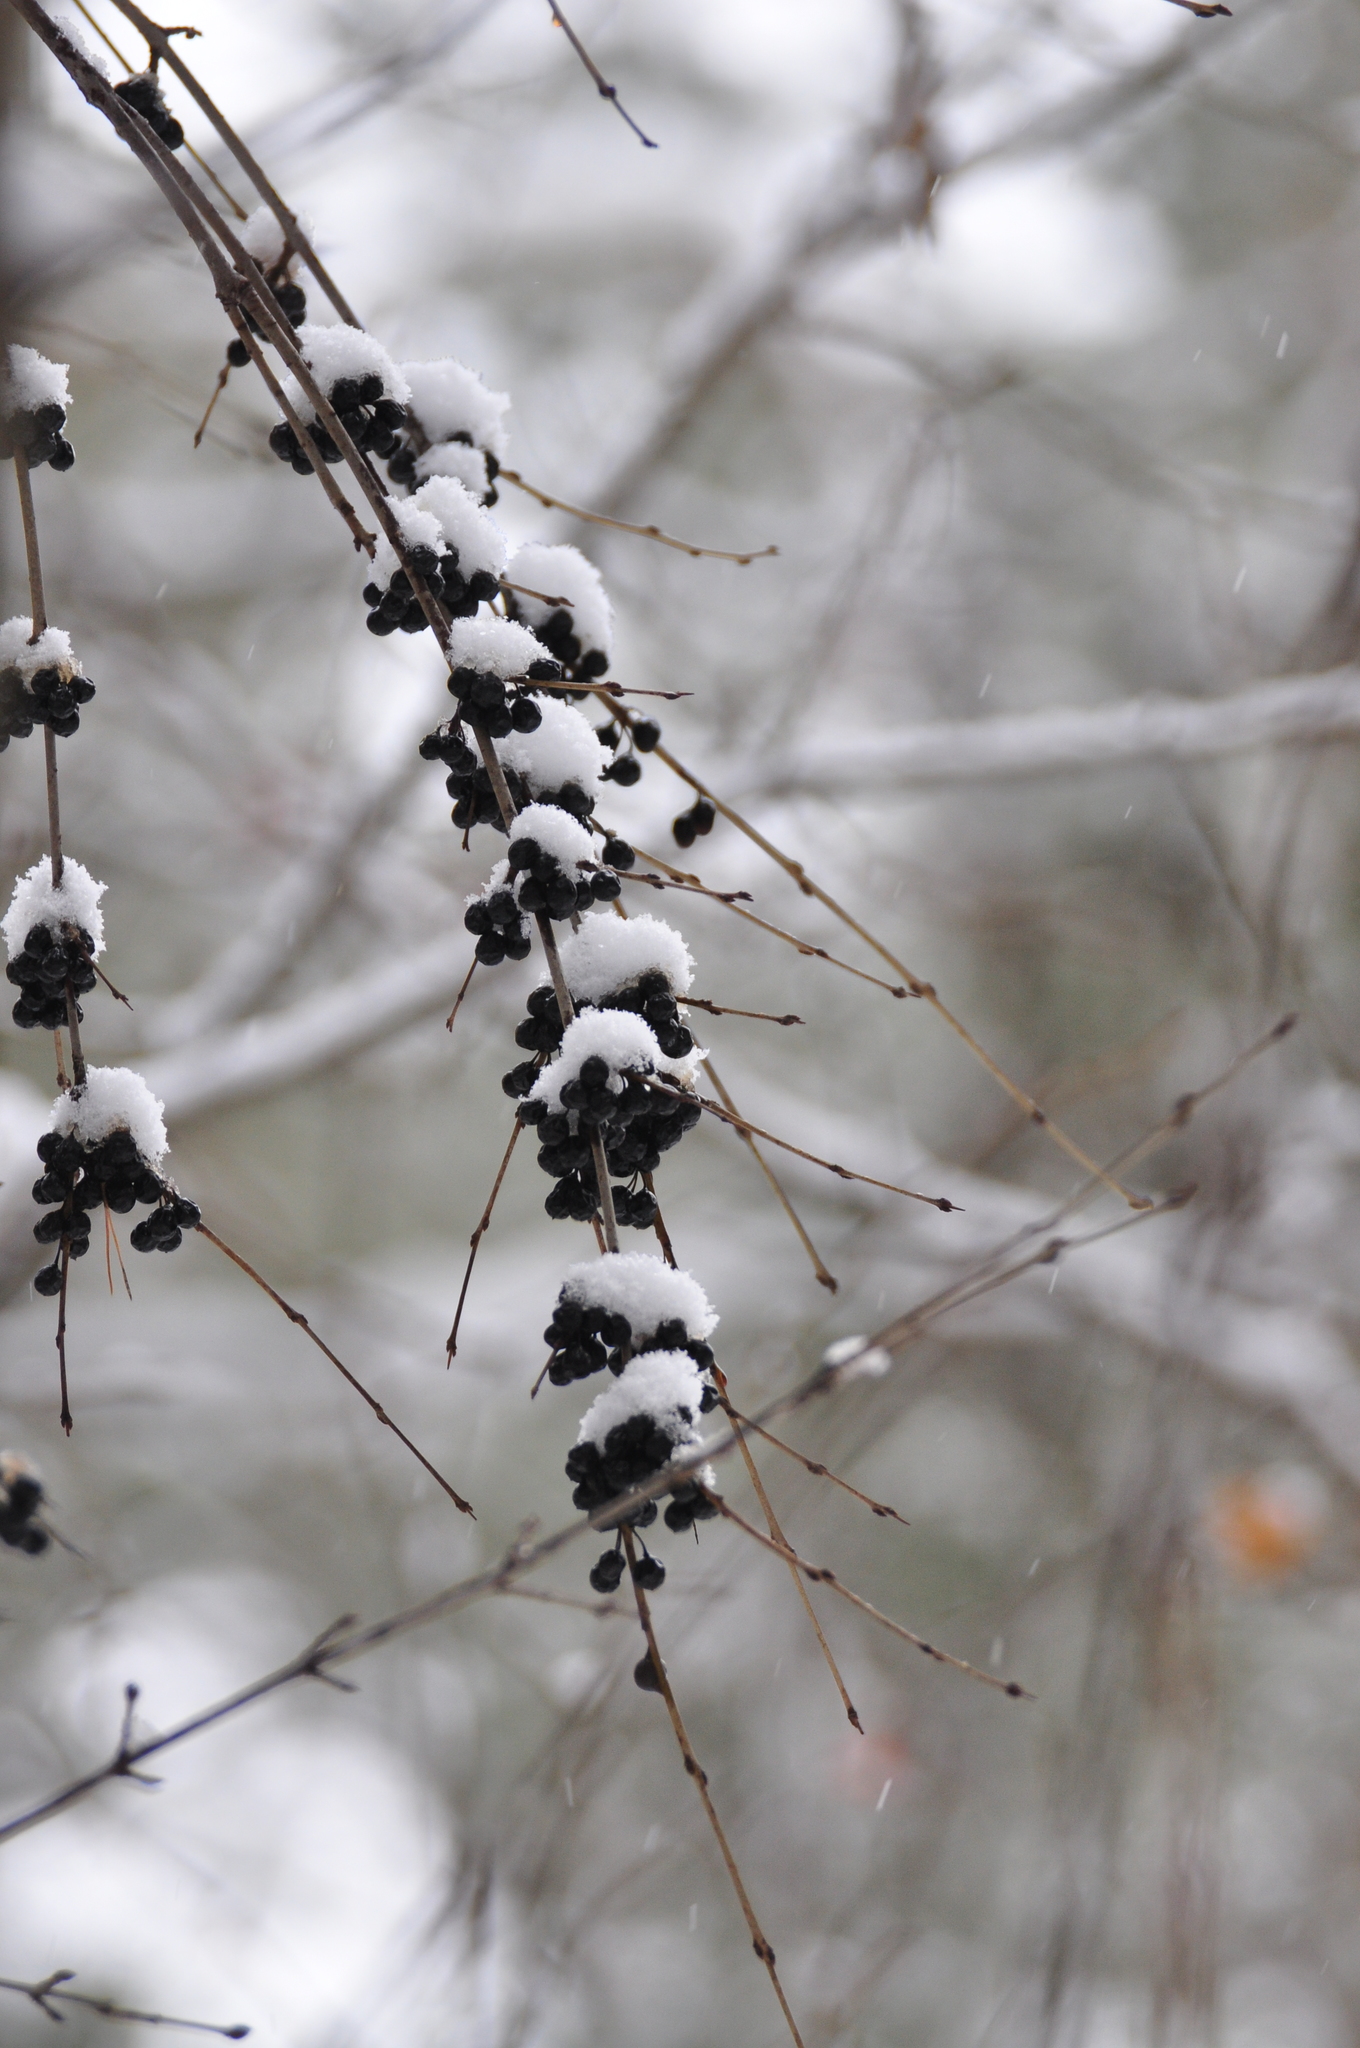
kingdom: Plantae
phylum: Tracheophyta
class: Magnoliopsida
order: Rosales
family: Rhamnaceae
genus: Rhamnus
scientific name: Rhamnus cathartica
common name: Common buckthorn
